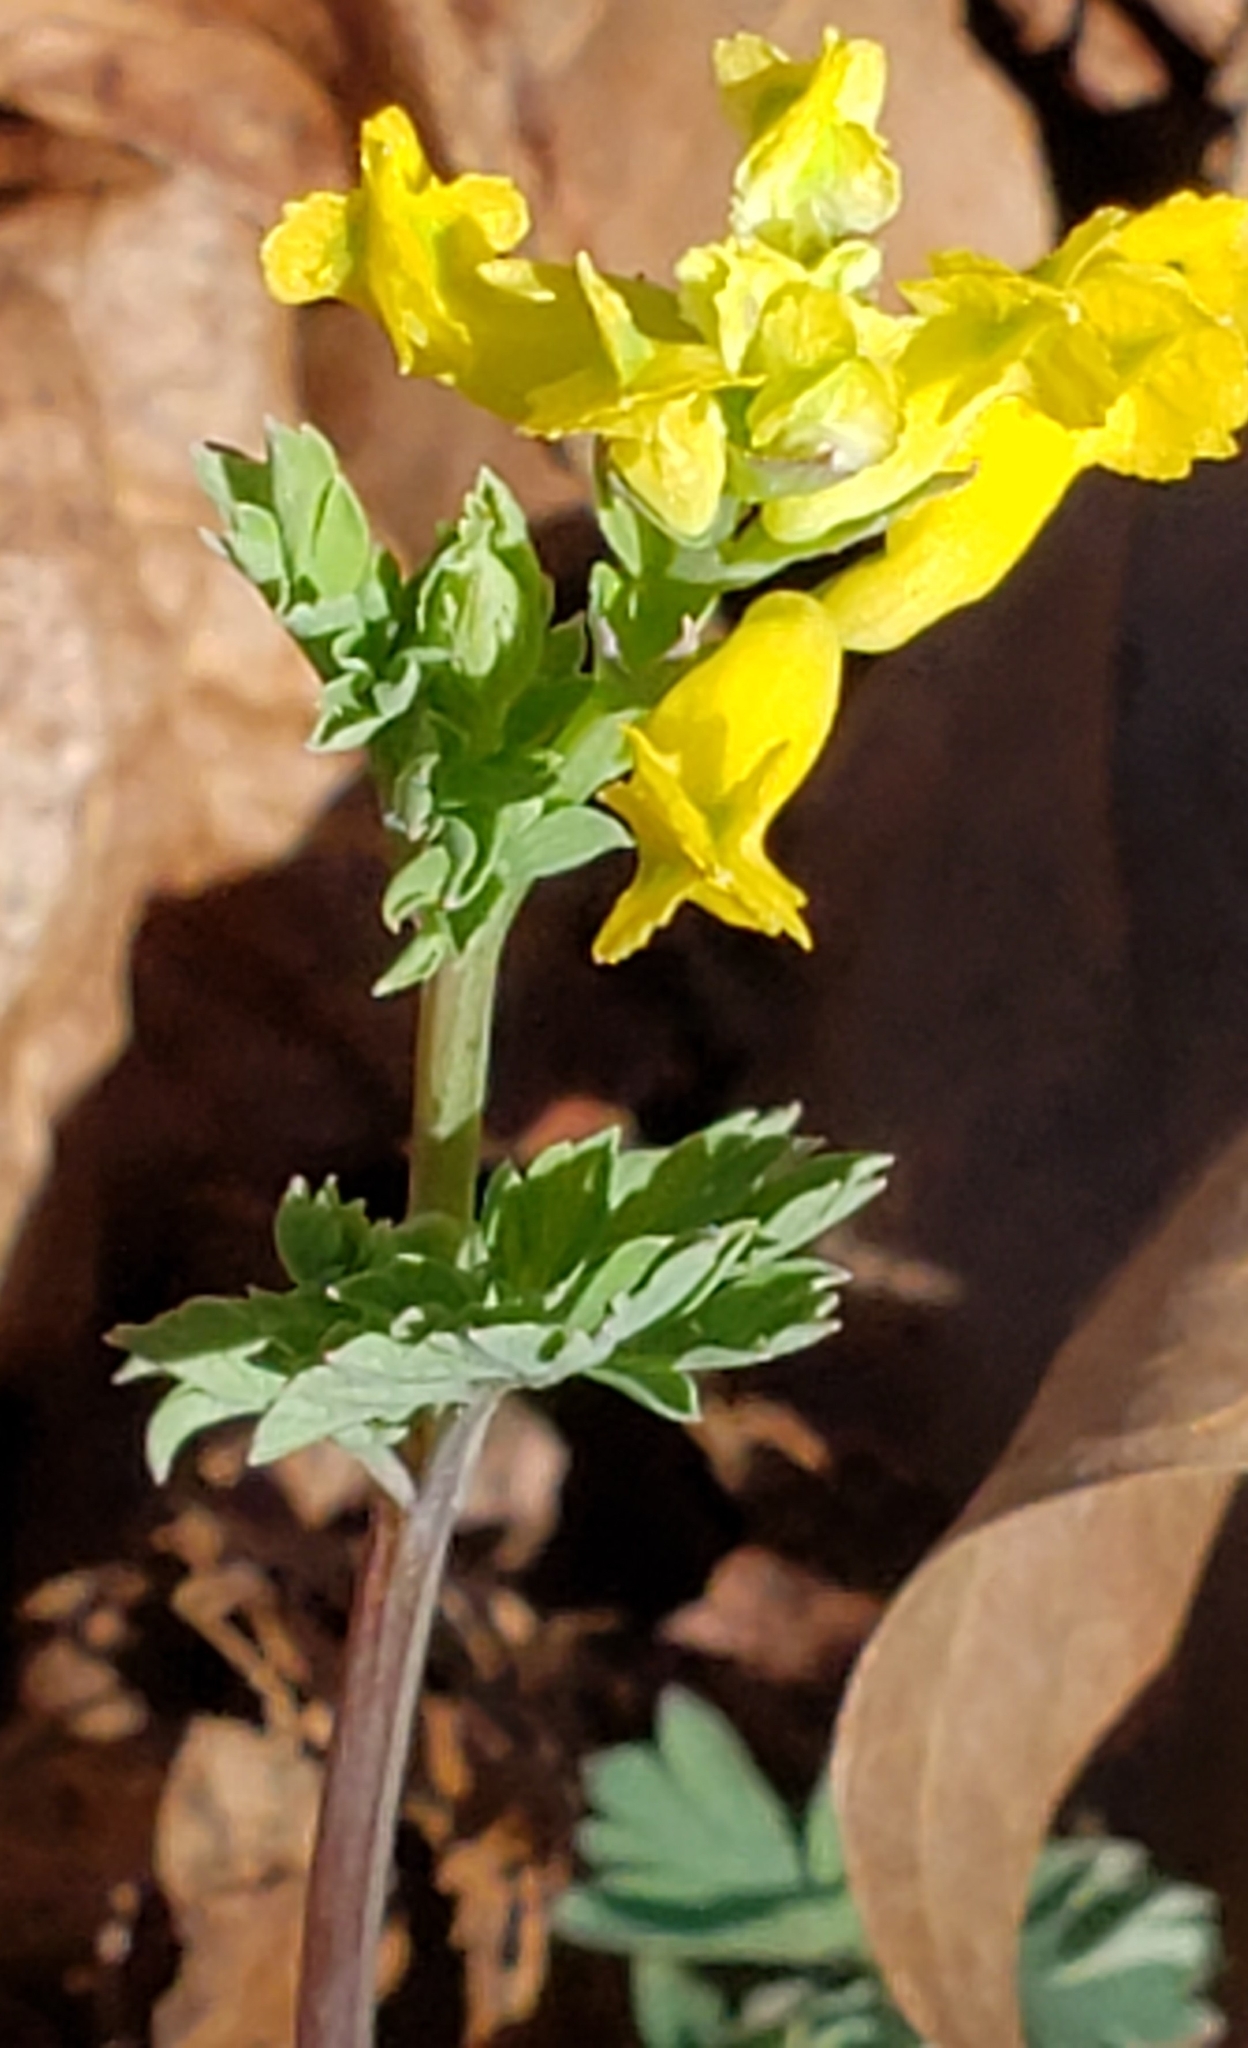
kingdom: Plantae
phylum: Tracheophyta
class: Magnoliopsida
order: Ranunculales
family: Papaveraceae
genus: Corydalis
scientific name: Corydalis flavula
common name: Yellow corydalis
